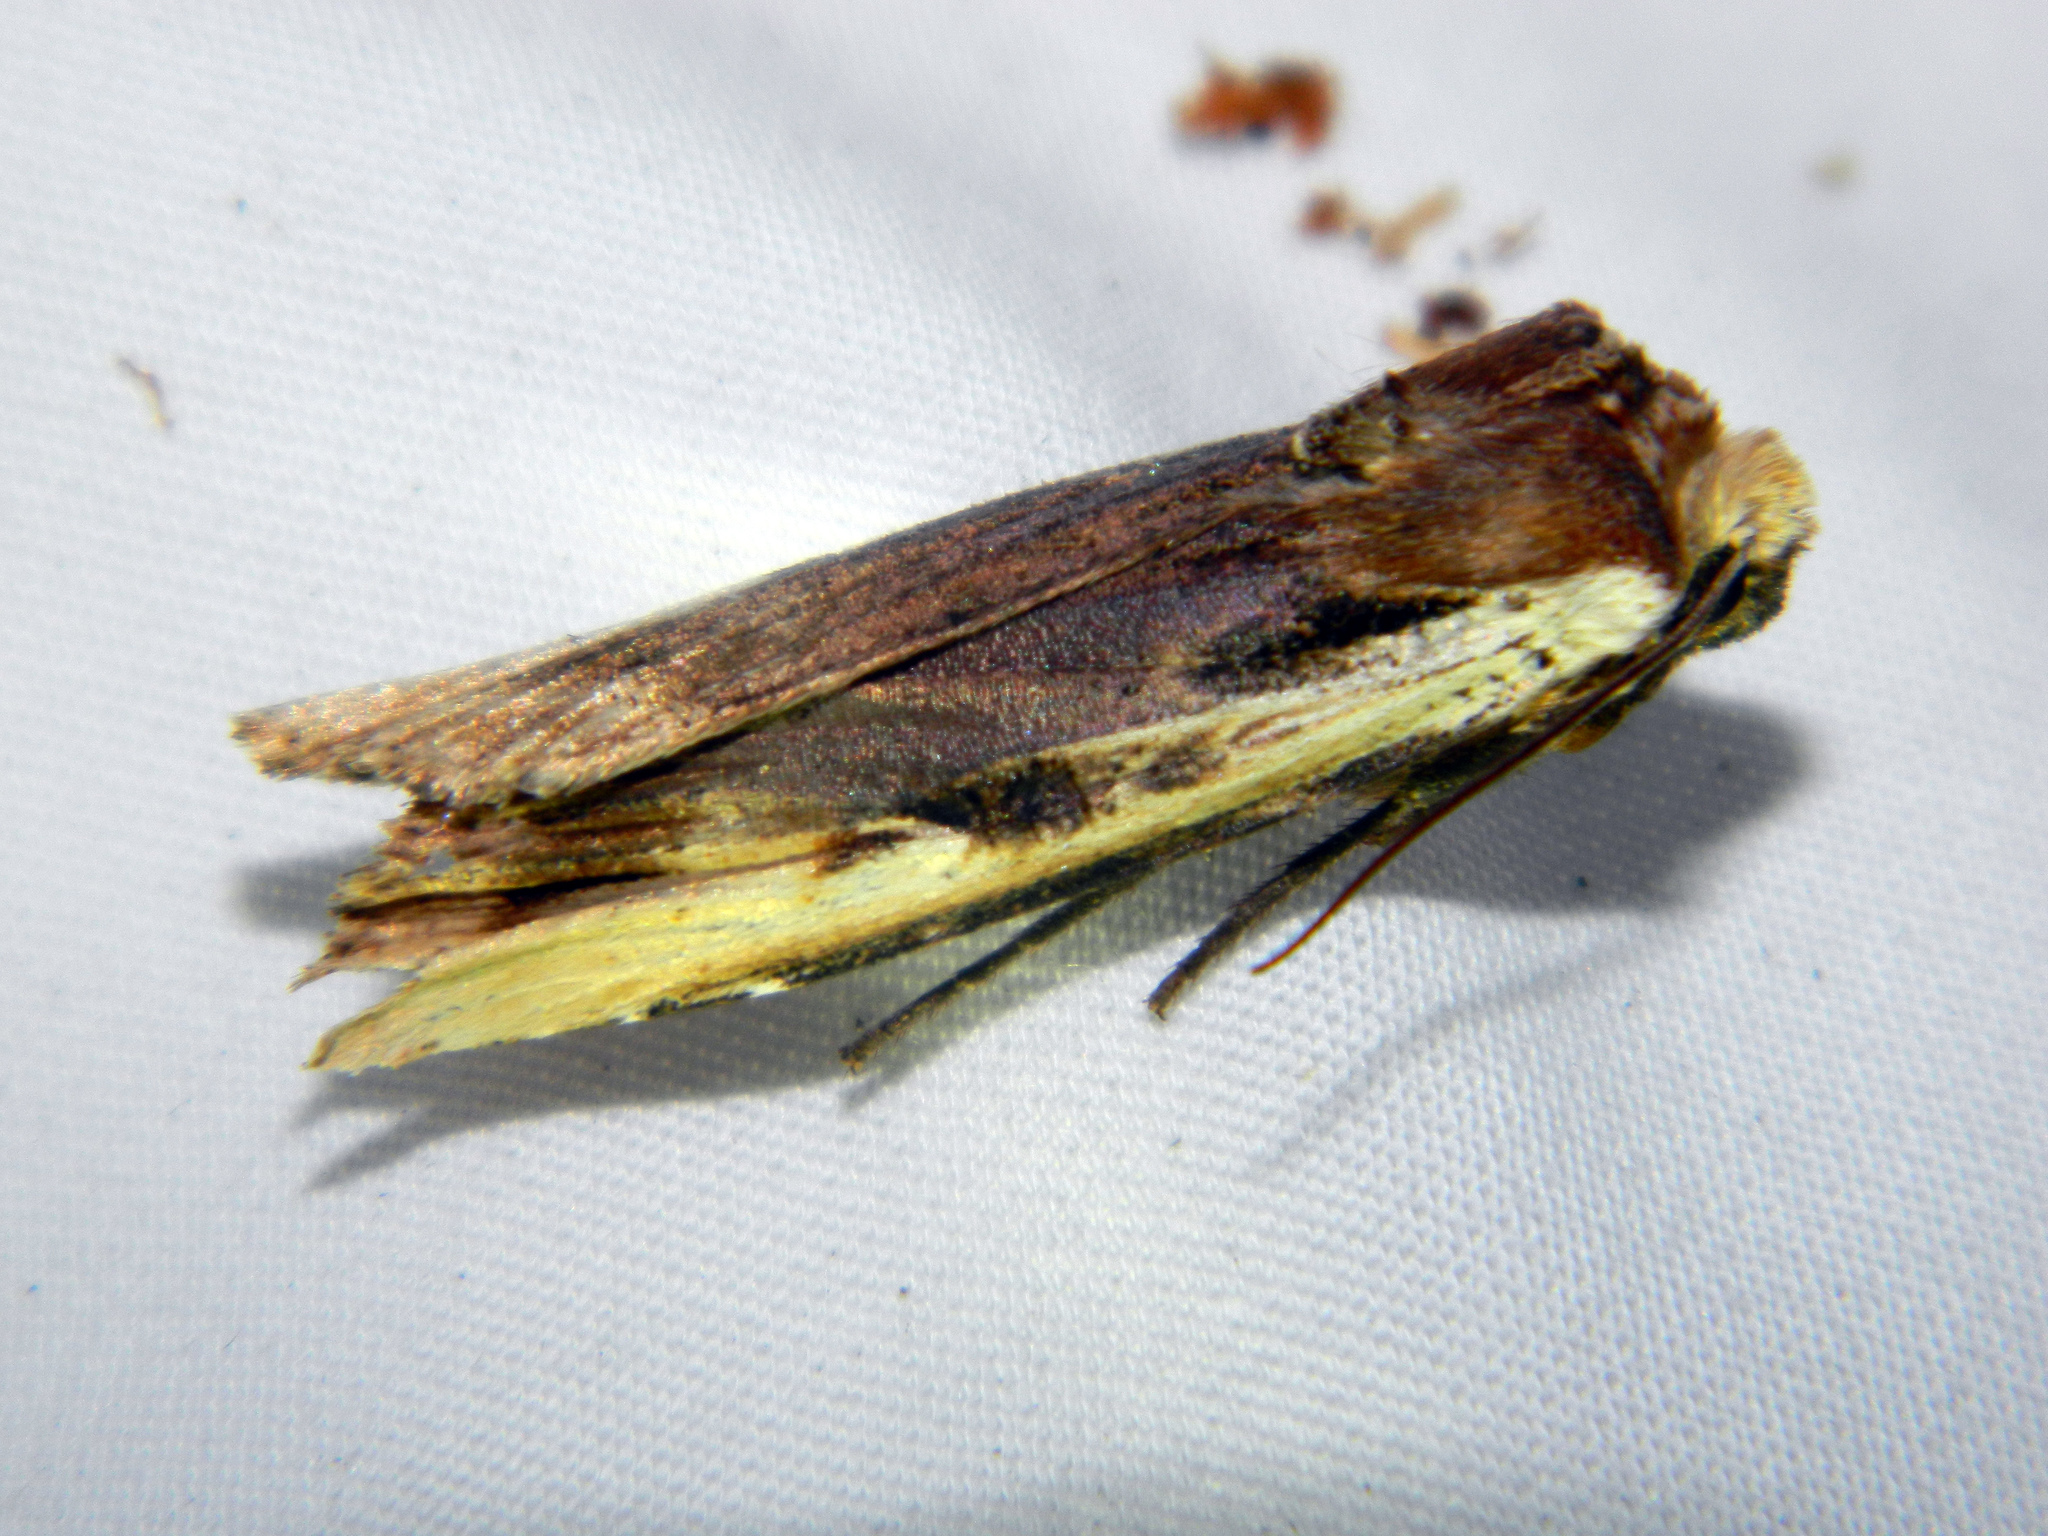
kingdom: Animalia
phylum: Arthropoda
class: Insecta
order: Lepidoptera
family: Noctuidae
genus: Xylena
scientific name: Xylena curvimacula
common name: Dot-and-dash swordgrass moth
